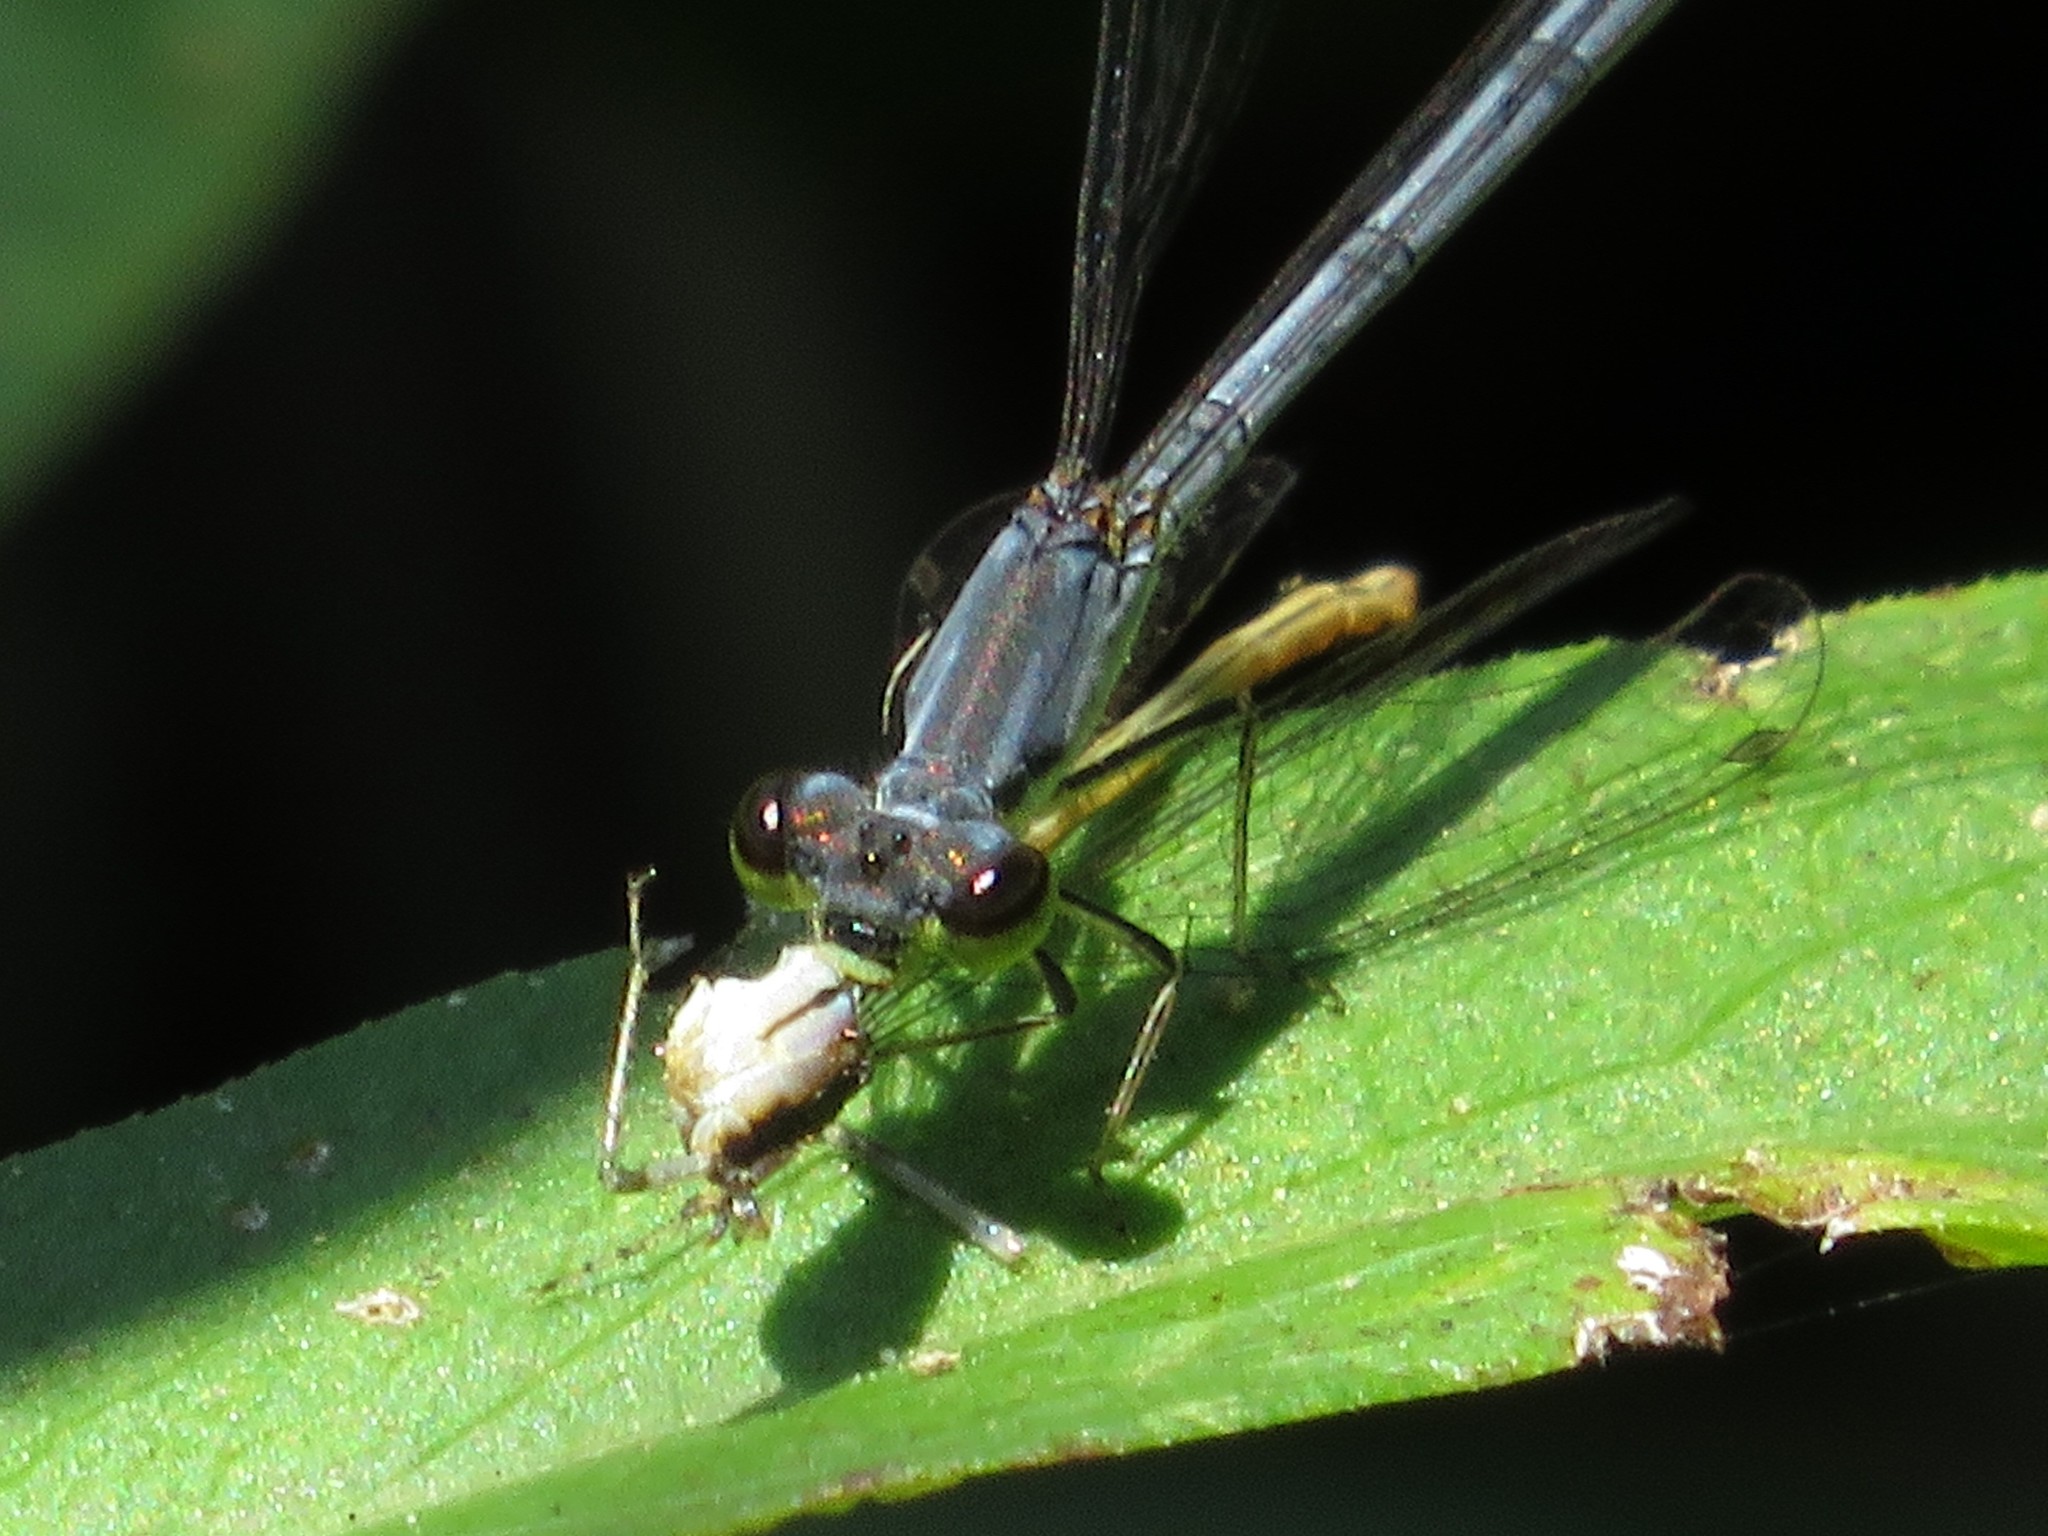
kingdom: Animalia
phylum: Arthropoda
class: Insecta
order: Odonata
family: Coenagrionidae
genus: Ischnura
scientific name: Ischnura posita
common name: Fragile forktail
